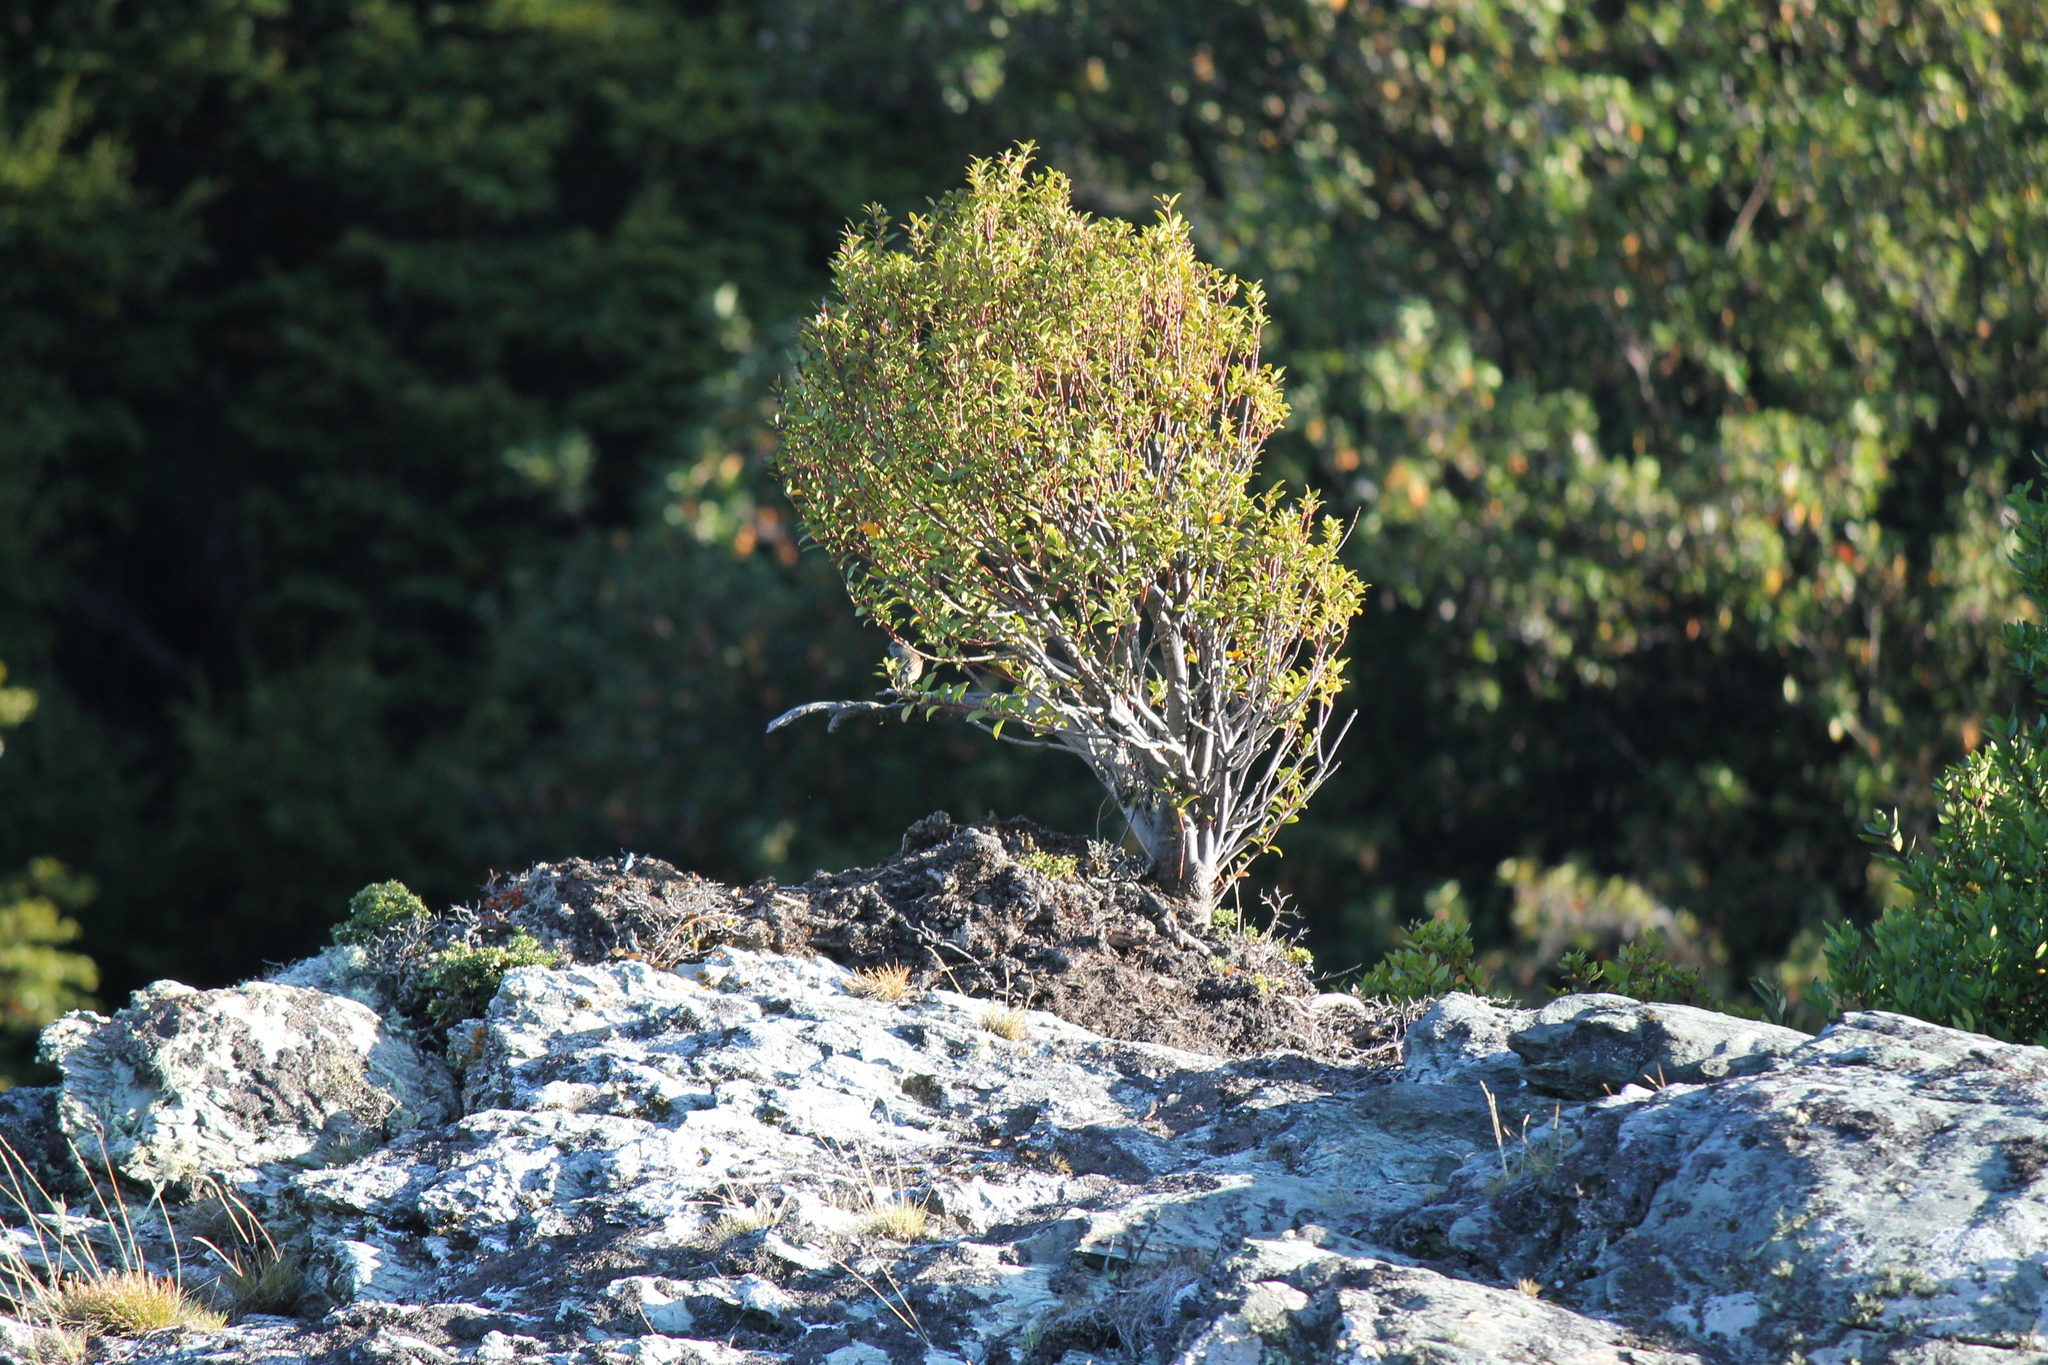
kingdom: Animalia
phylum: Chordata
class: Aves
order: Passeriformes
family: Tyrannidae
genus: Colorhamphus
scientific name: Colorhamphus parvirostris
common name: Patagonian tyrant
